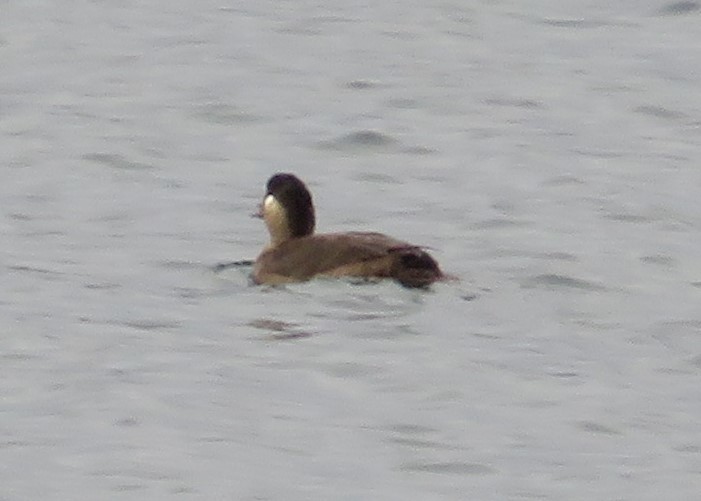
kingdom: Animalia
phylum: Chordata
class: Aves
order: Anseriformes
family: Anatidae
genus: Melanitta
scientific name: Melanitta perspicillata
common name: Surf scoter
